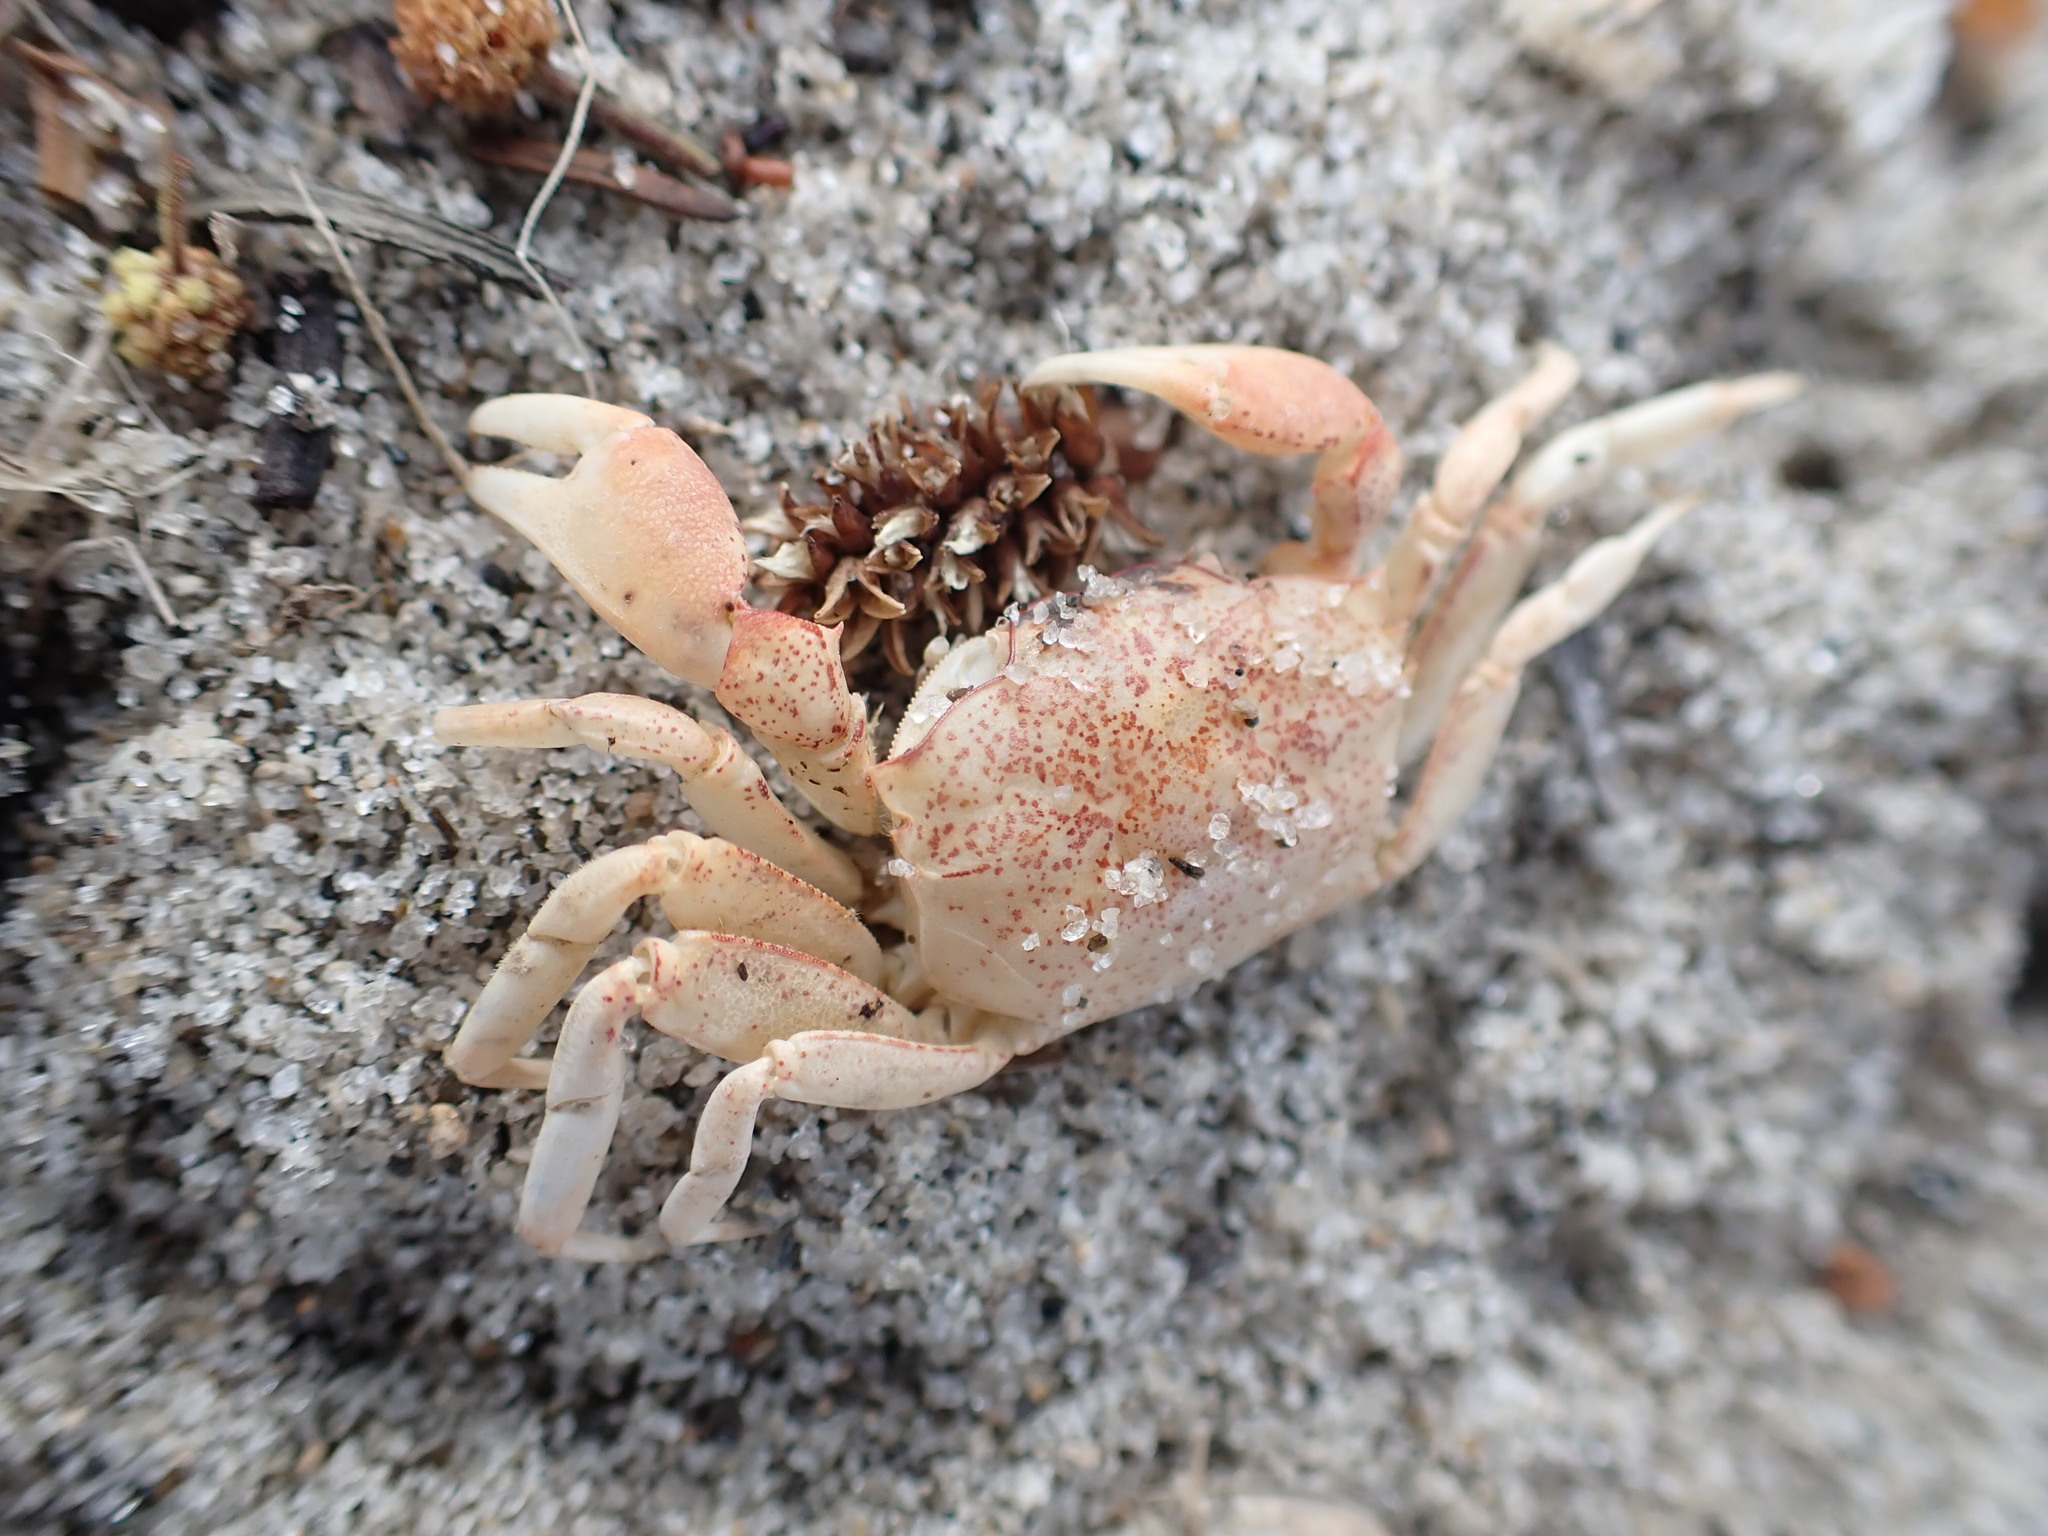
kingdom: Animalia
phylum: Arthropoda
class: Malacostraca
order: Decapoda
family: Varunidae
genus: Austrohelice
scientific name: Austrohelice crassa
